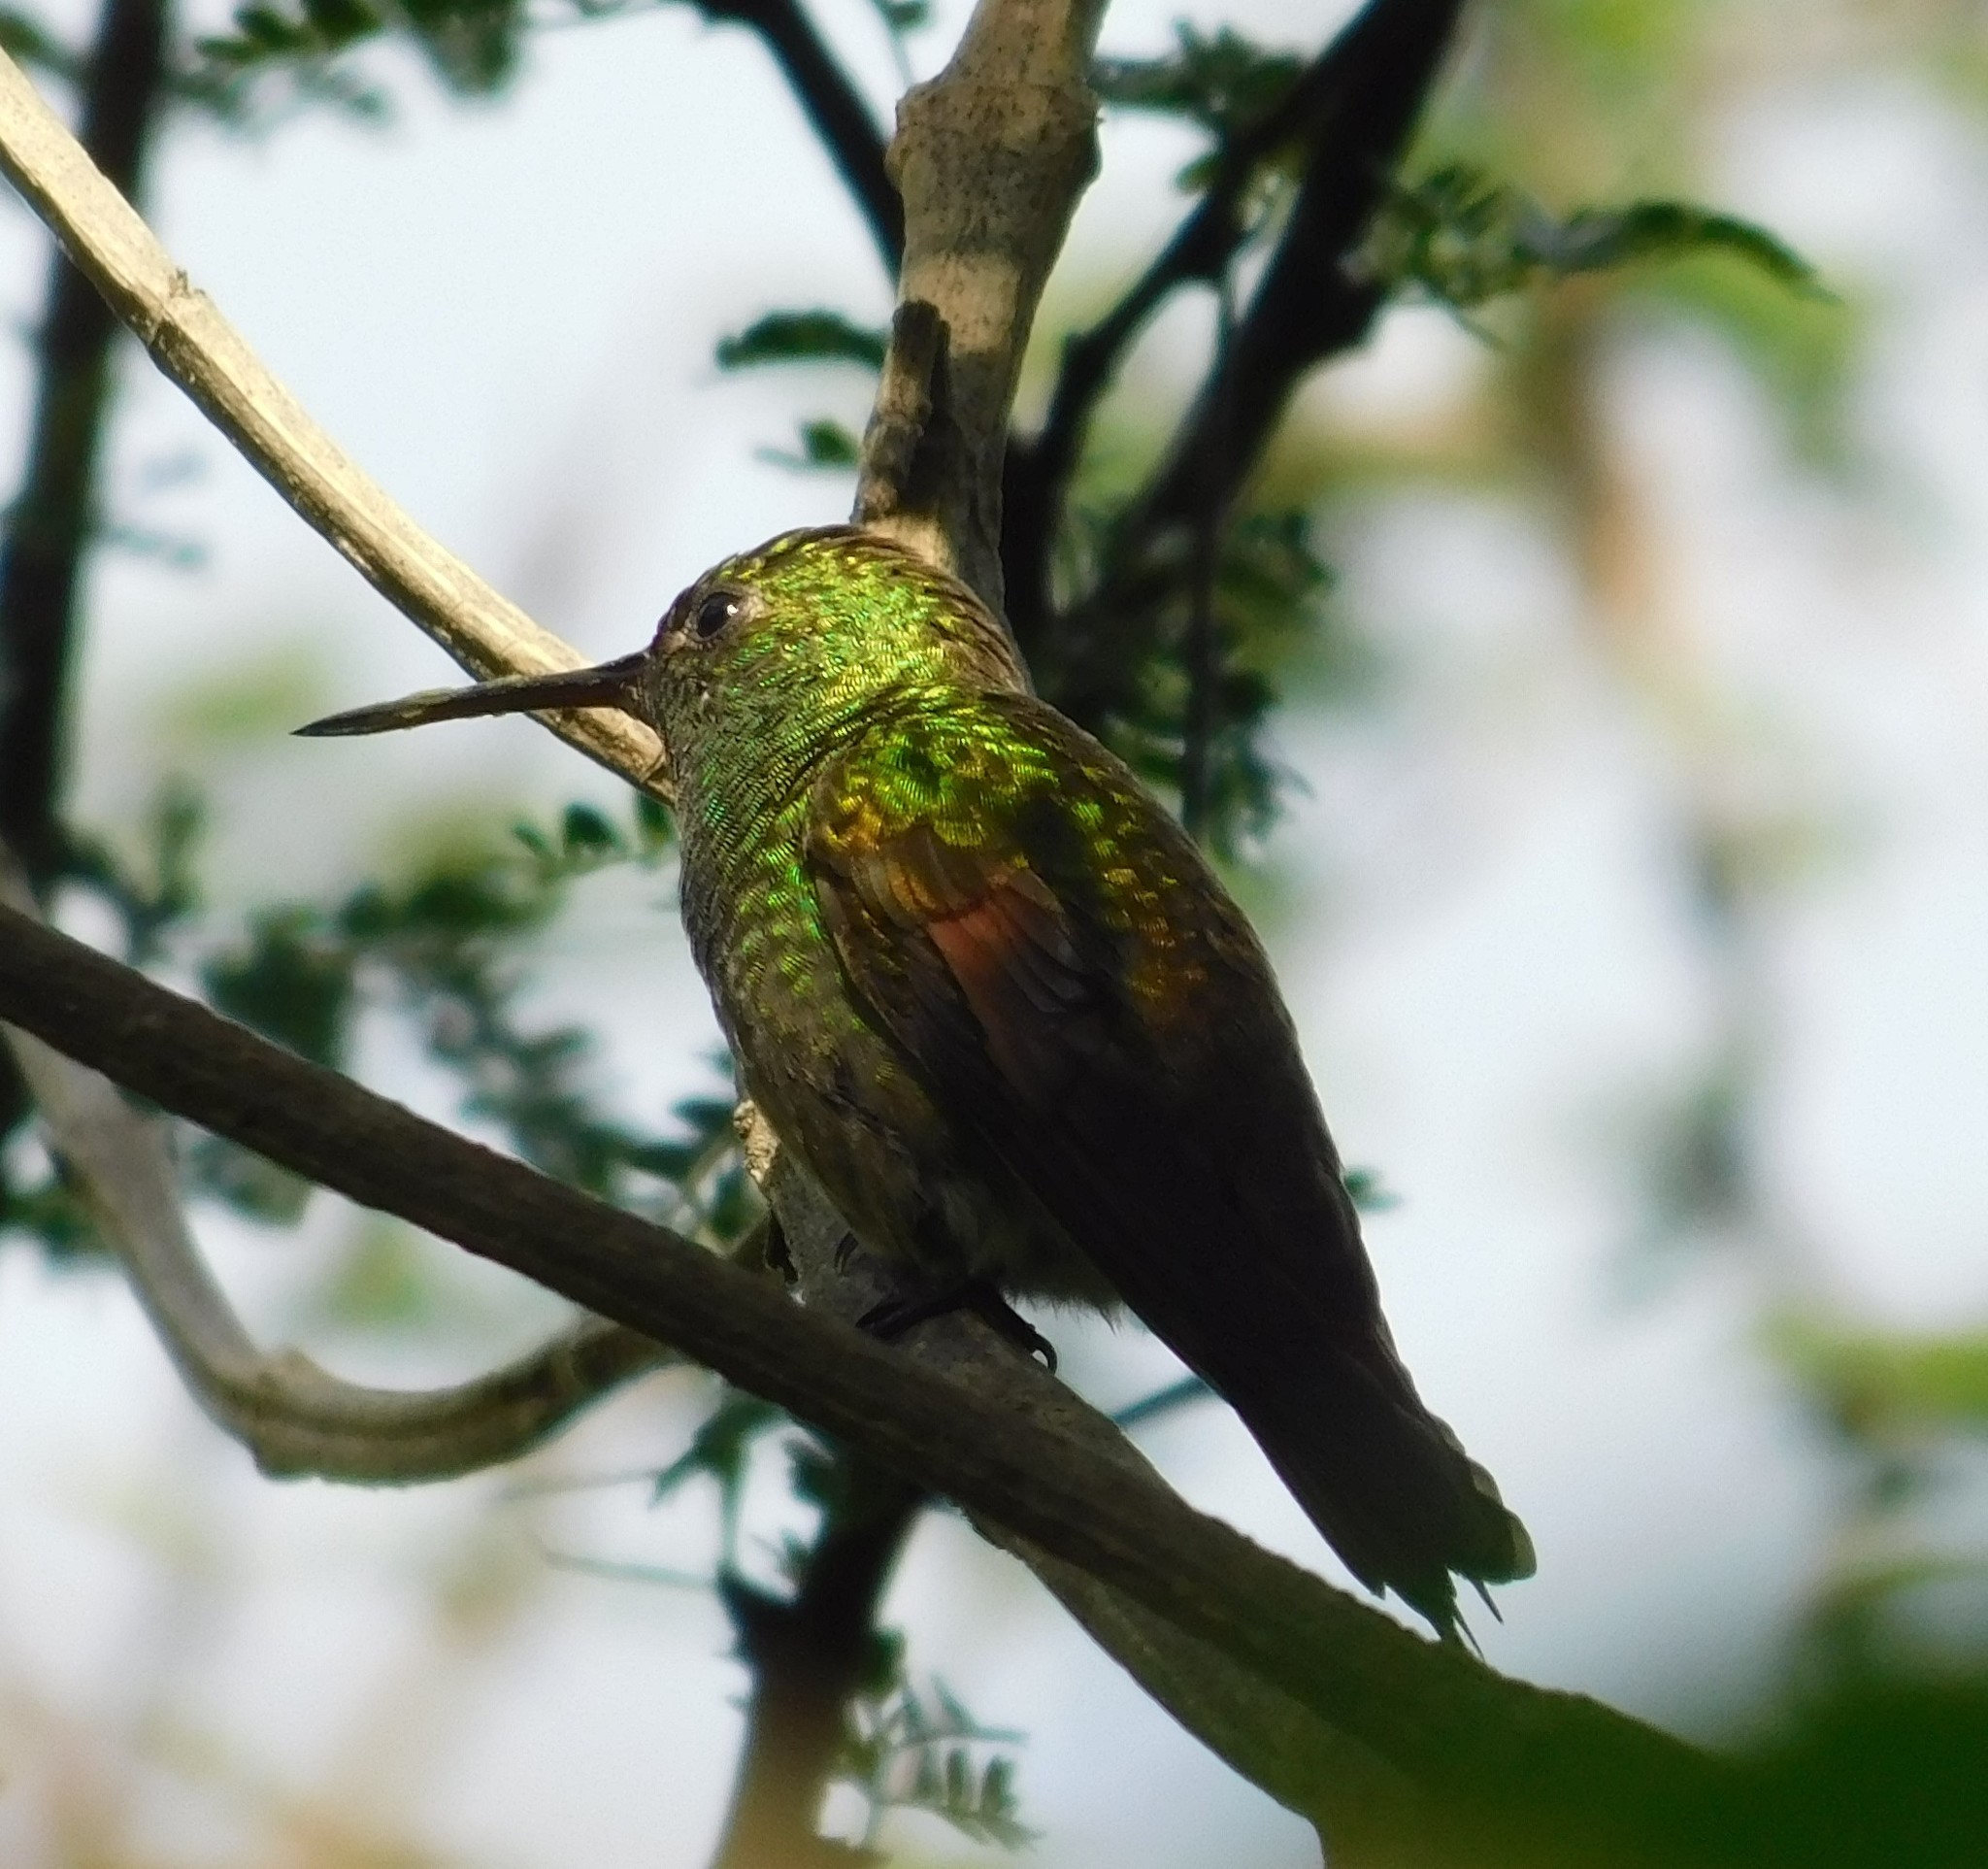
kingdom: Animalia
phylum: Chordata
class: Aves
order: Apodiformes
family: Trochilidae
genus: Saucerottia
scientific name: Saucerottia beryllina
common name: Berylline hummingbird
